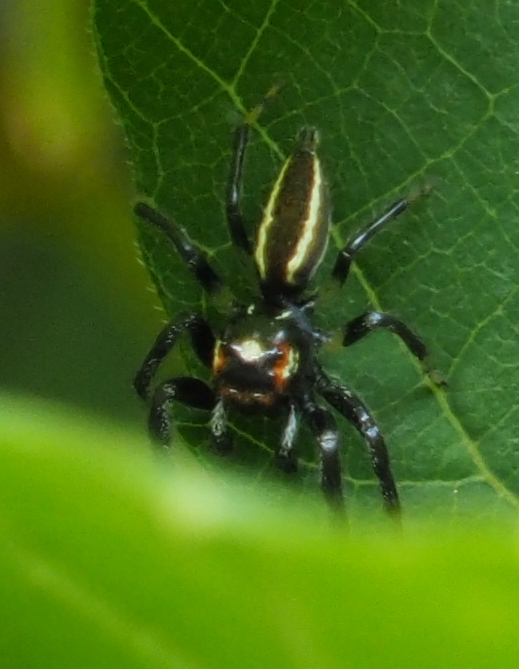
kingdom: Animalia
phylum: Arthropoda
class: Arachnida
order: Araneae
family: Salticidae
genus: Colonus
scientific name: Colonus sylvanus
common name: Jumping spiders
